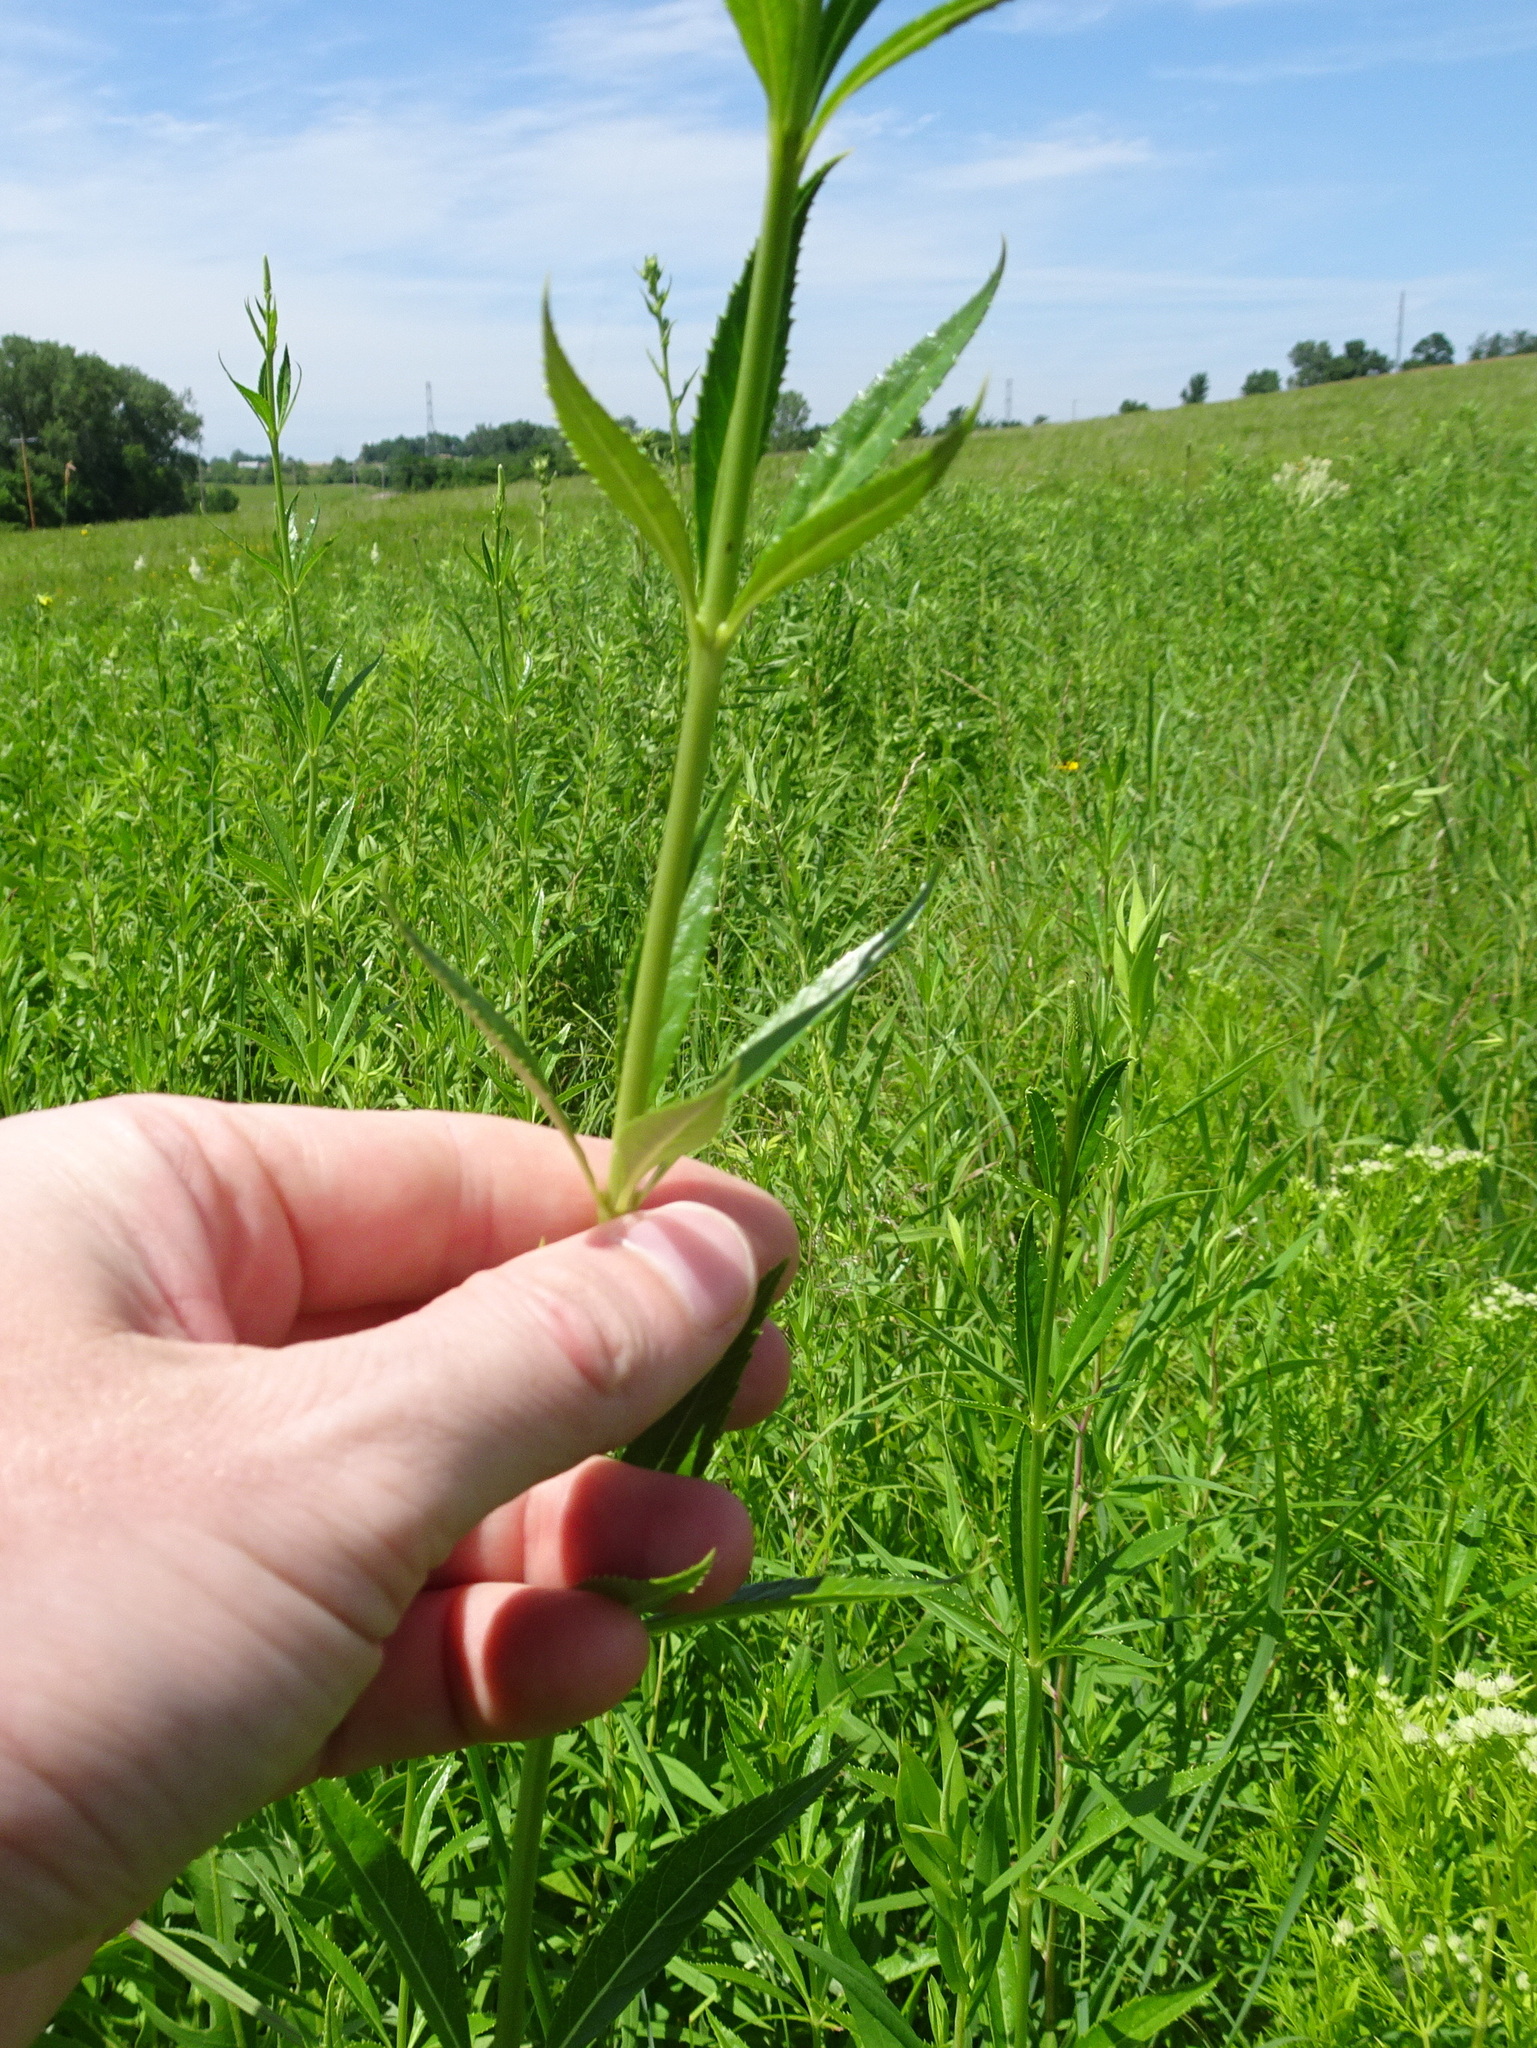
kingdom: Plantae
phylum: Tracheophyta
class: Magnoliopsida
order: Lamiales
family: Plantaginaceae
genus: Veronicastrum
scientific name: Veronicastrum virginicum
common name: Blackroot
